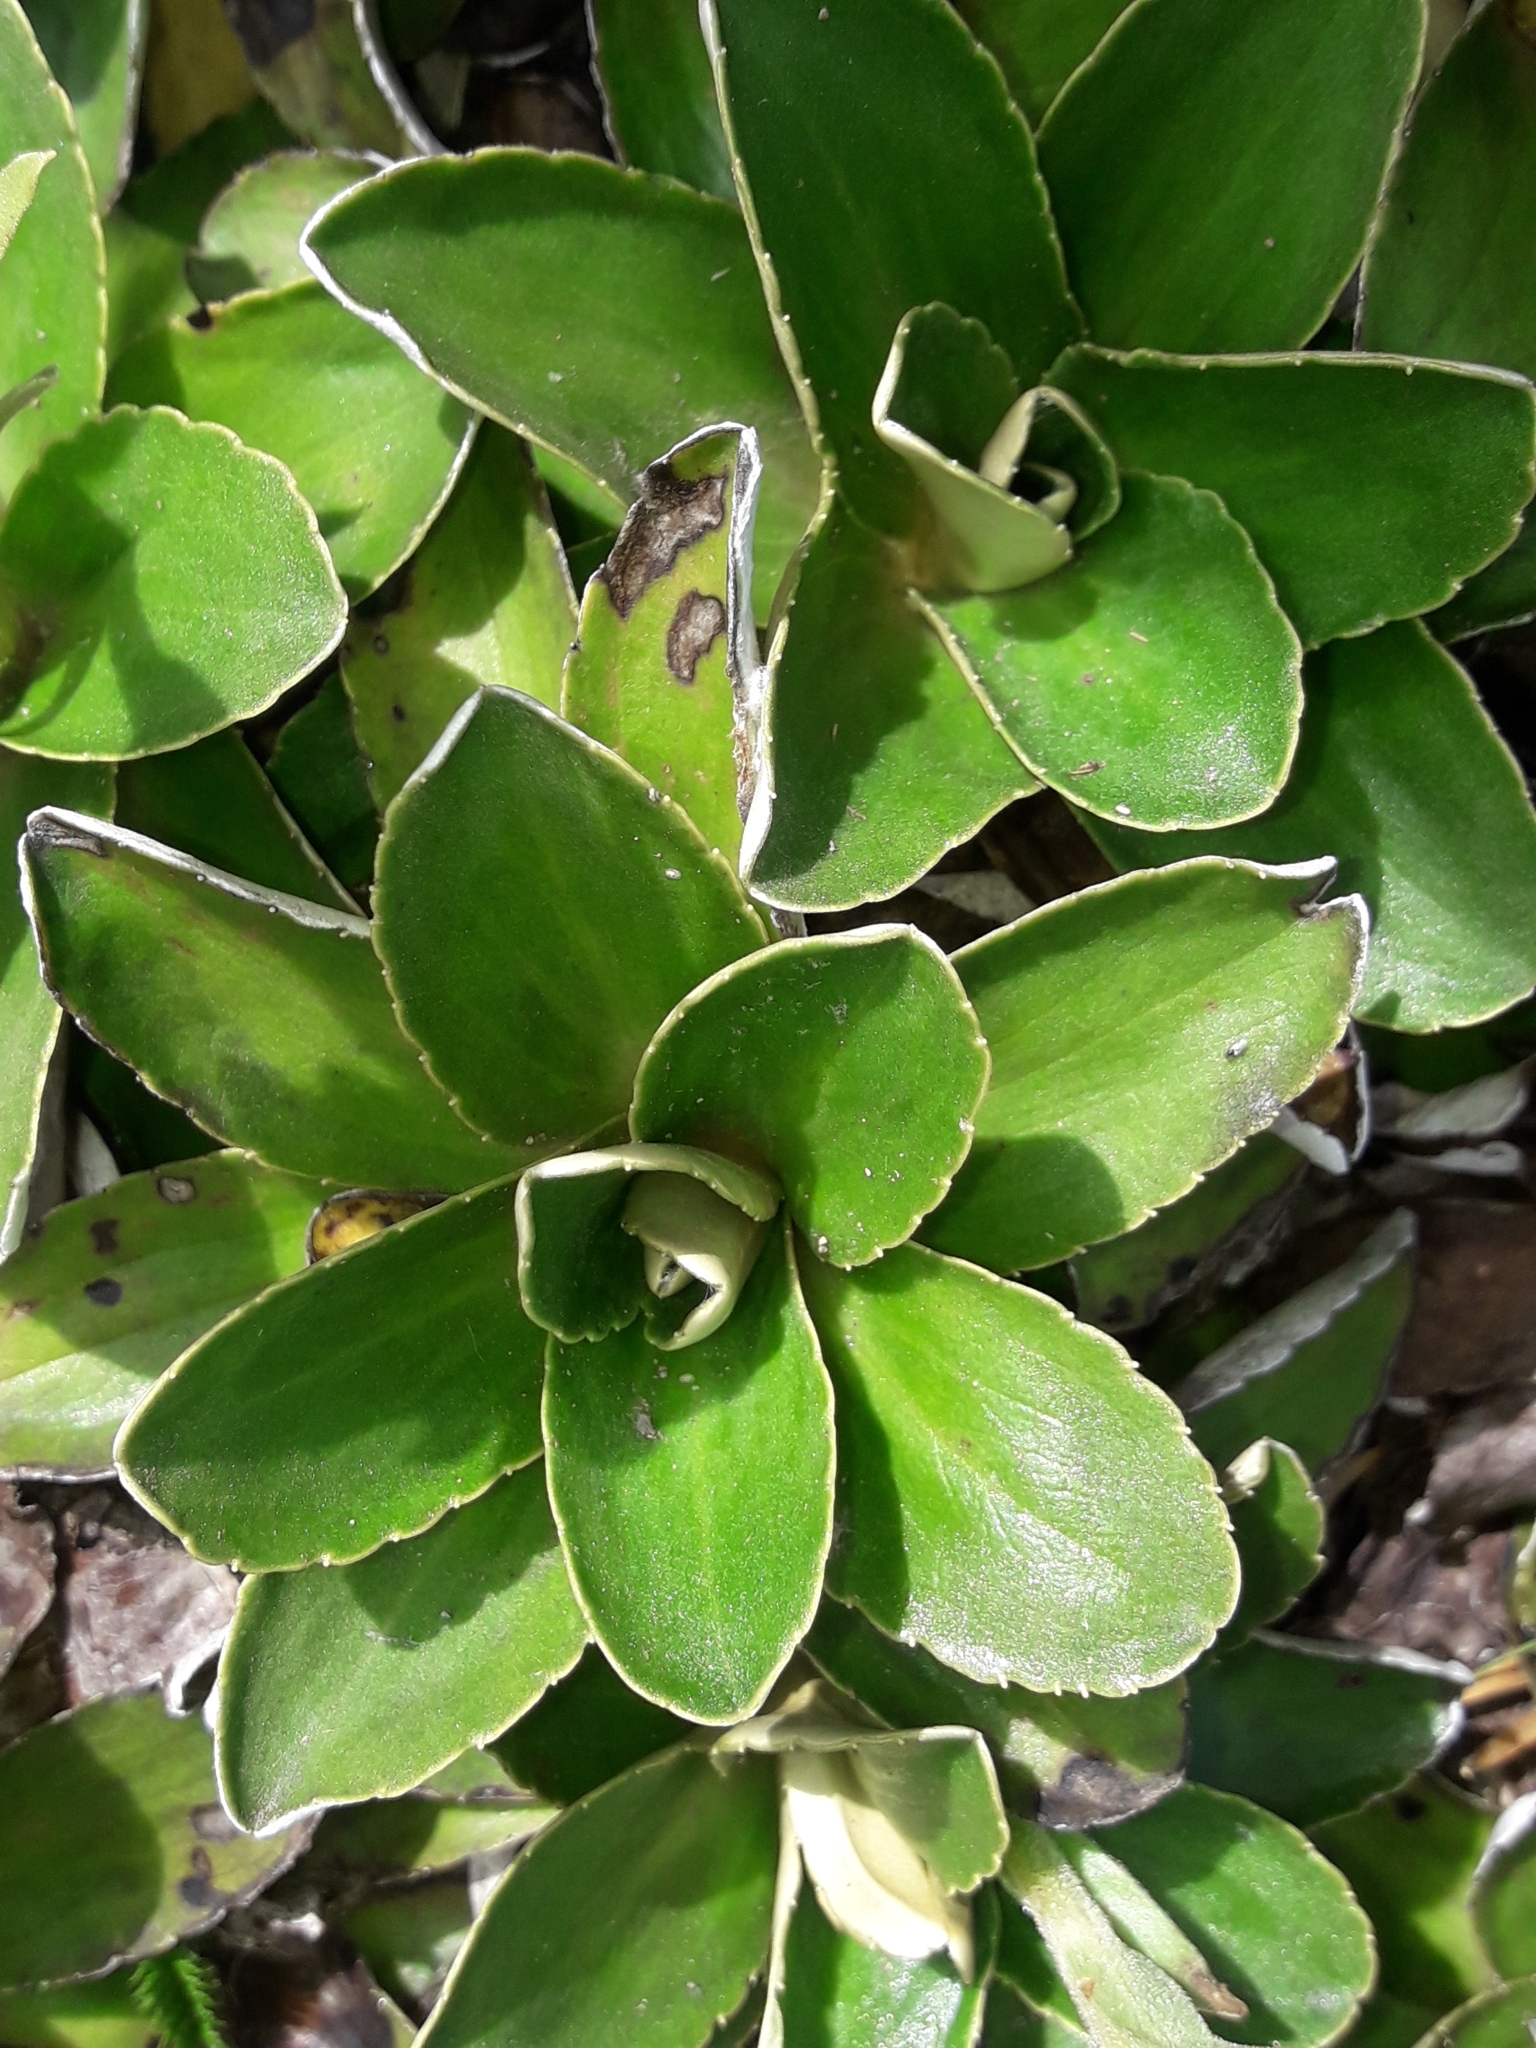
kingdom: Plantae
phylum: Tracheophyta
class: Magnoliopsida
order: Asterales
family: Asteraceae
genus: Celmisia
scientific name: Celmisia hieraciifolia
